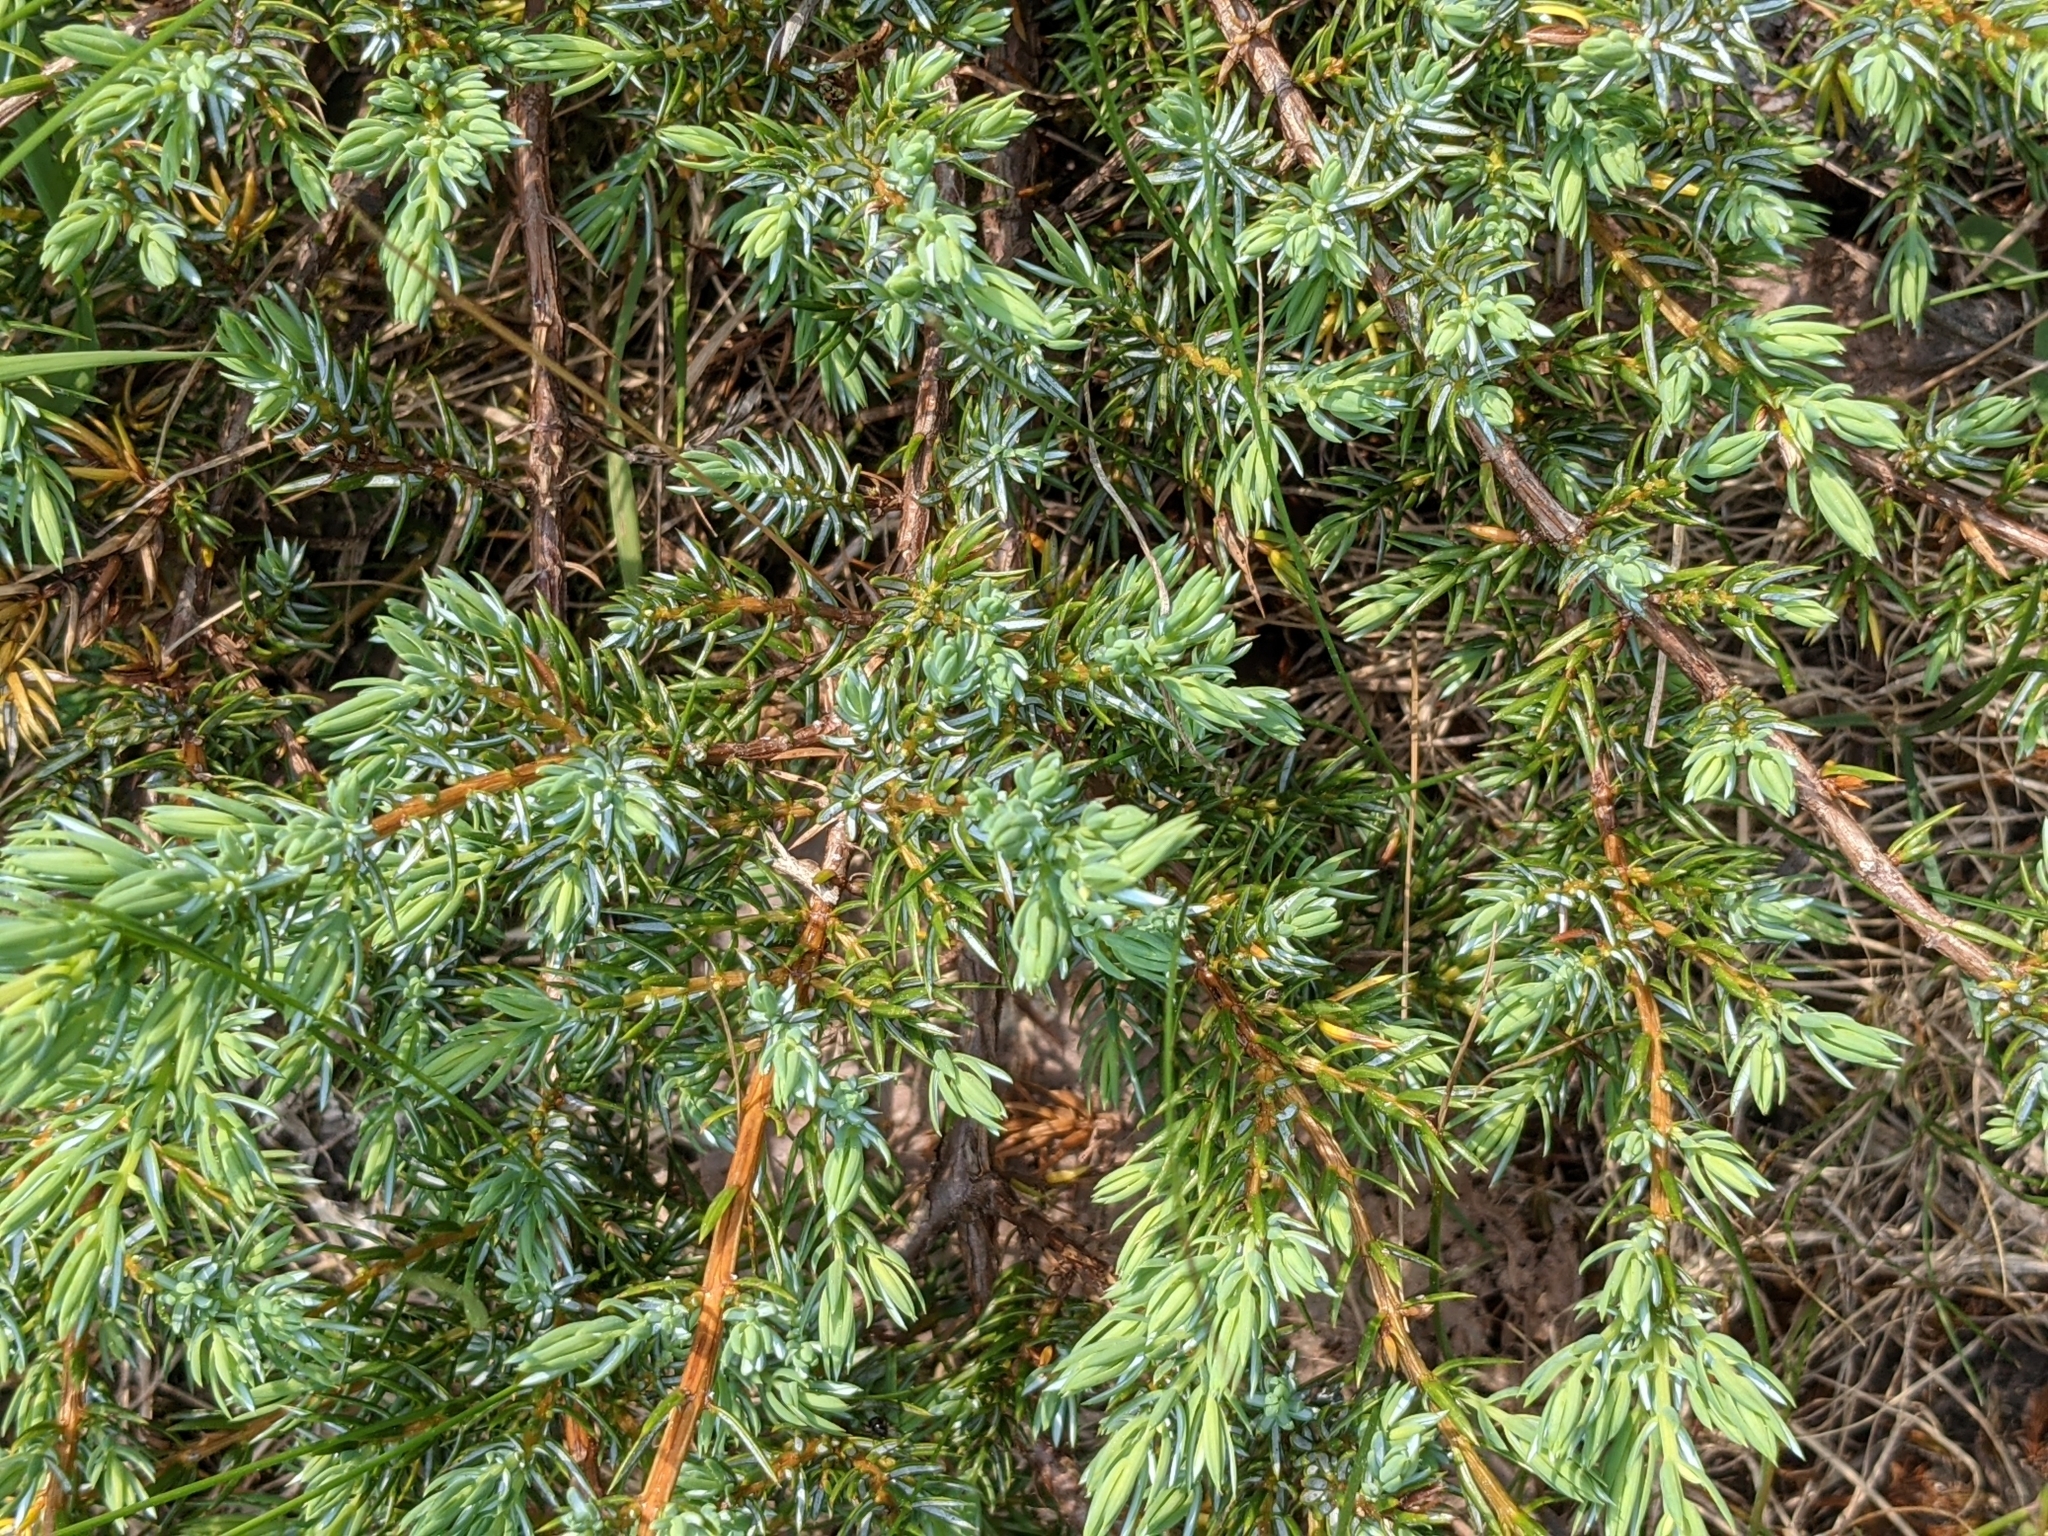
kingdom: Plantae
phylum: Tracheophyta
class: Pinopsida
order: Pinales
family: Cupressaceae
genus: Juniperus
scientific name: Juniperus communis
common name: Common juniper
